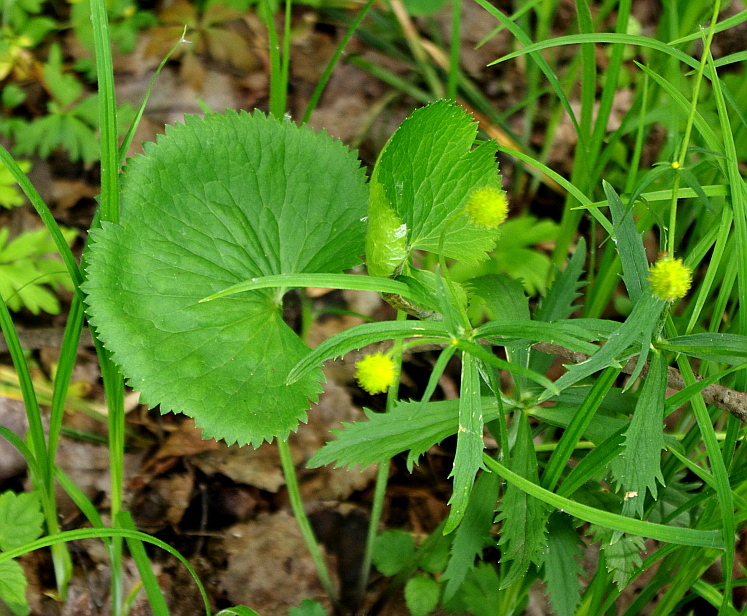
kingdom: Plantae
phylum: Tracheophyta
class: Magnoliopsida
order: Ranunculales
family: Ranunculaceae
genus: Ranunculus
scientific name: Ranunculus cassubicus
